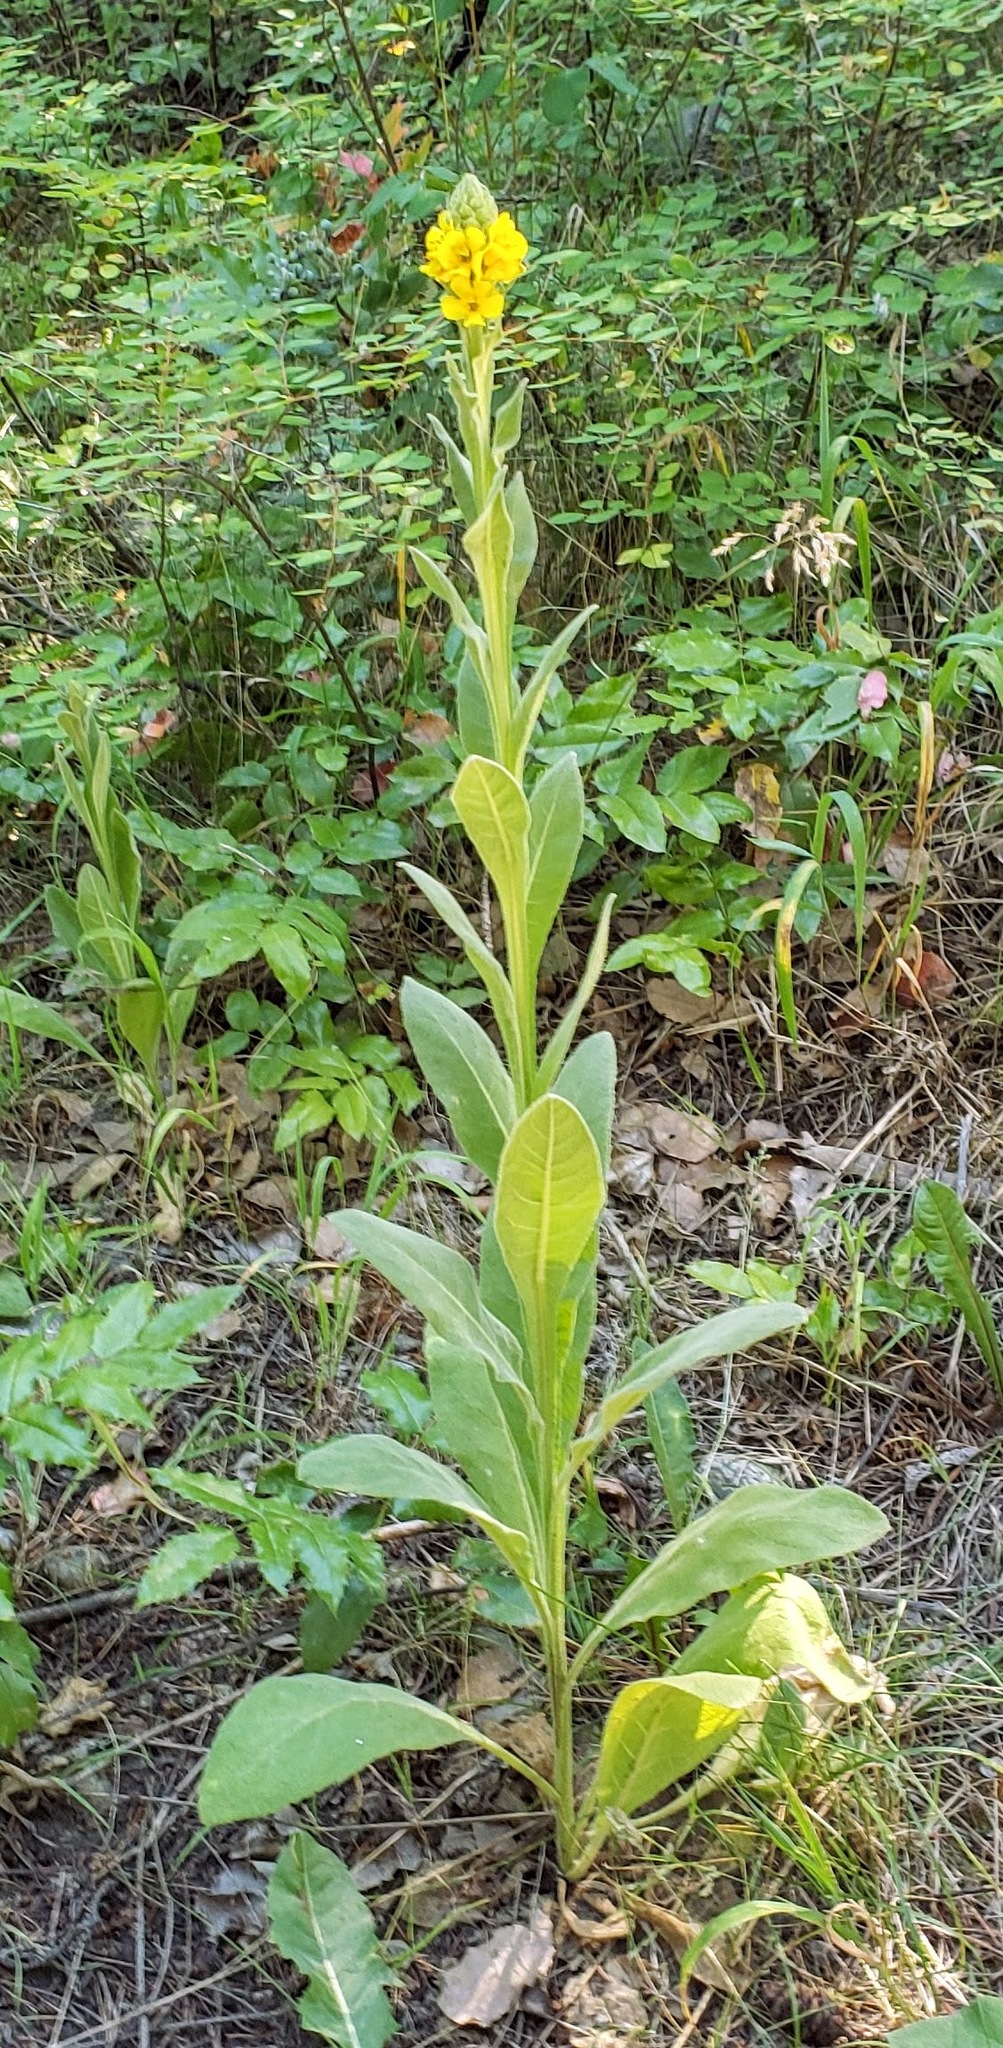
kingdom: Plantae
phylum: Tracheophyta
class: Magnoliopsida
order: Lamiales
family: Scrophulariaceae
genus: Verbascum
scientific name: Verbascum thapsus
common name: Common mullein
